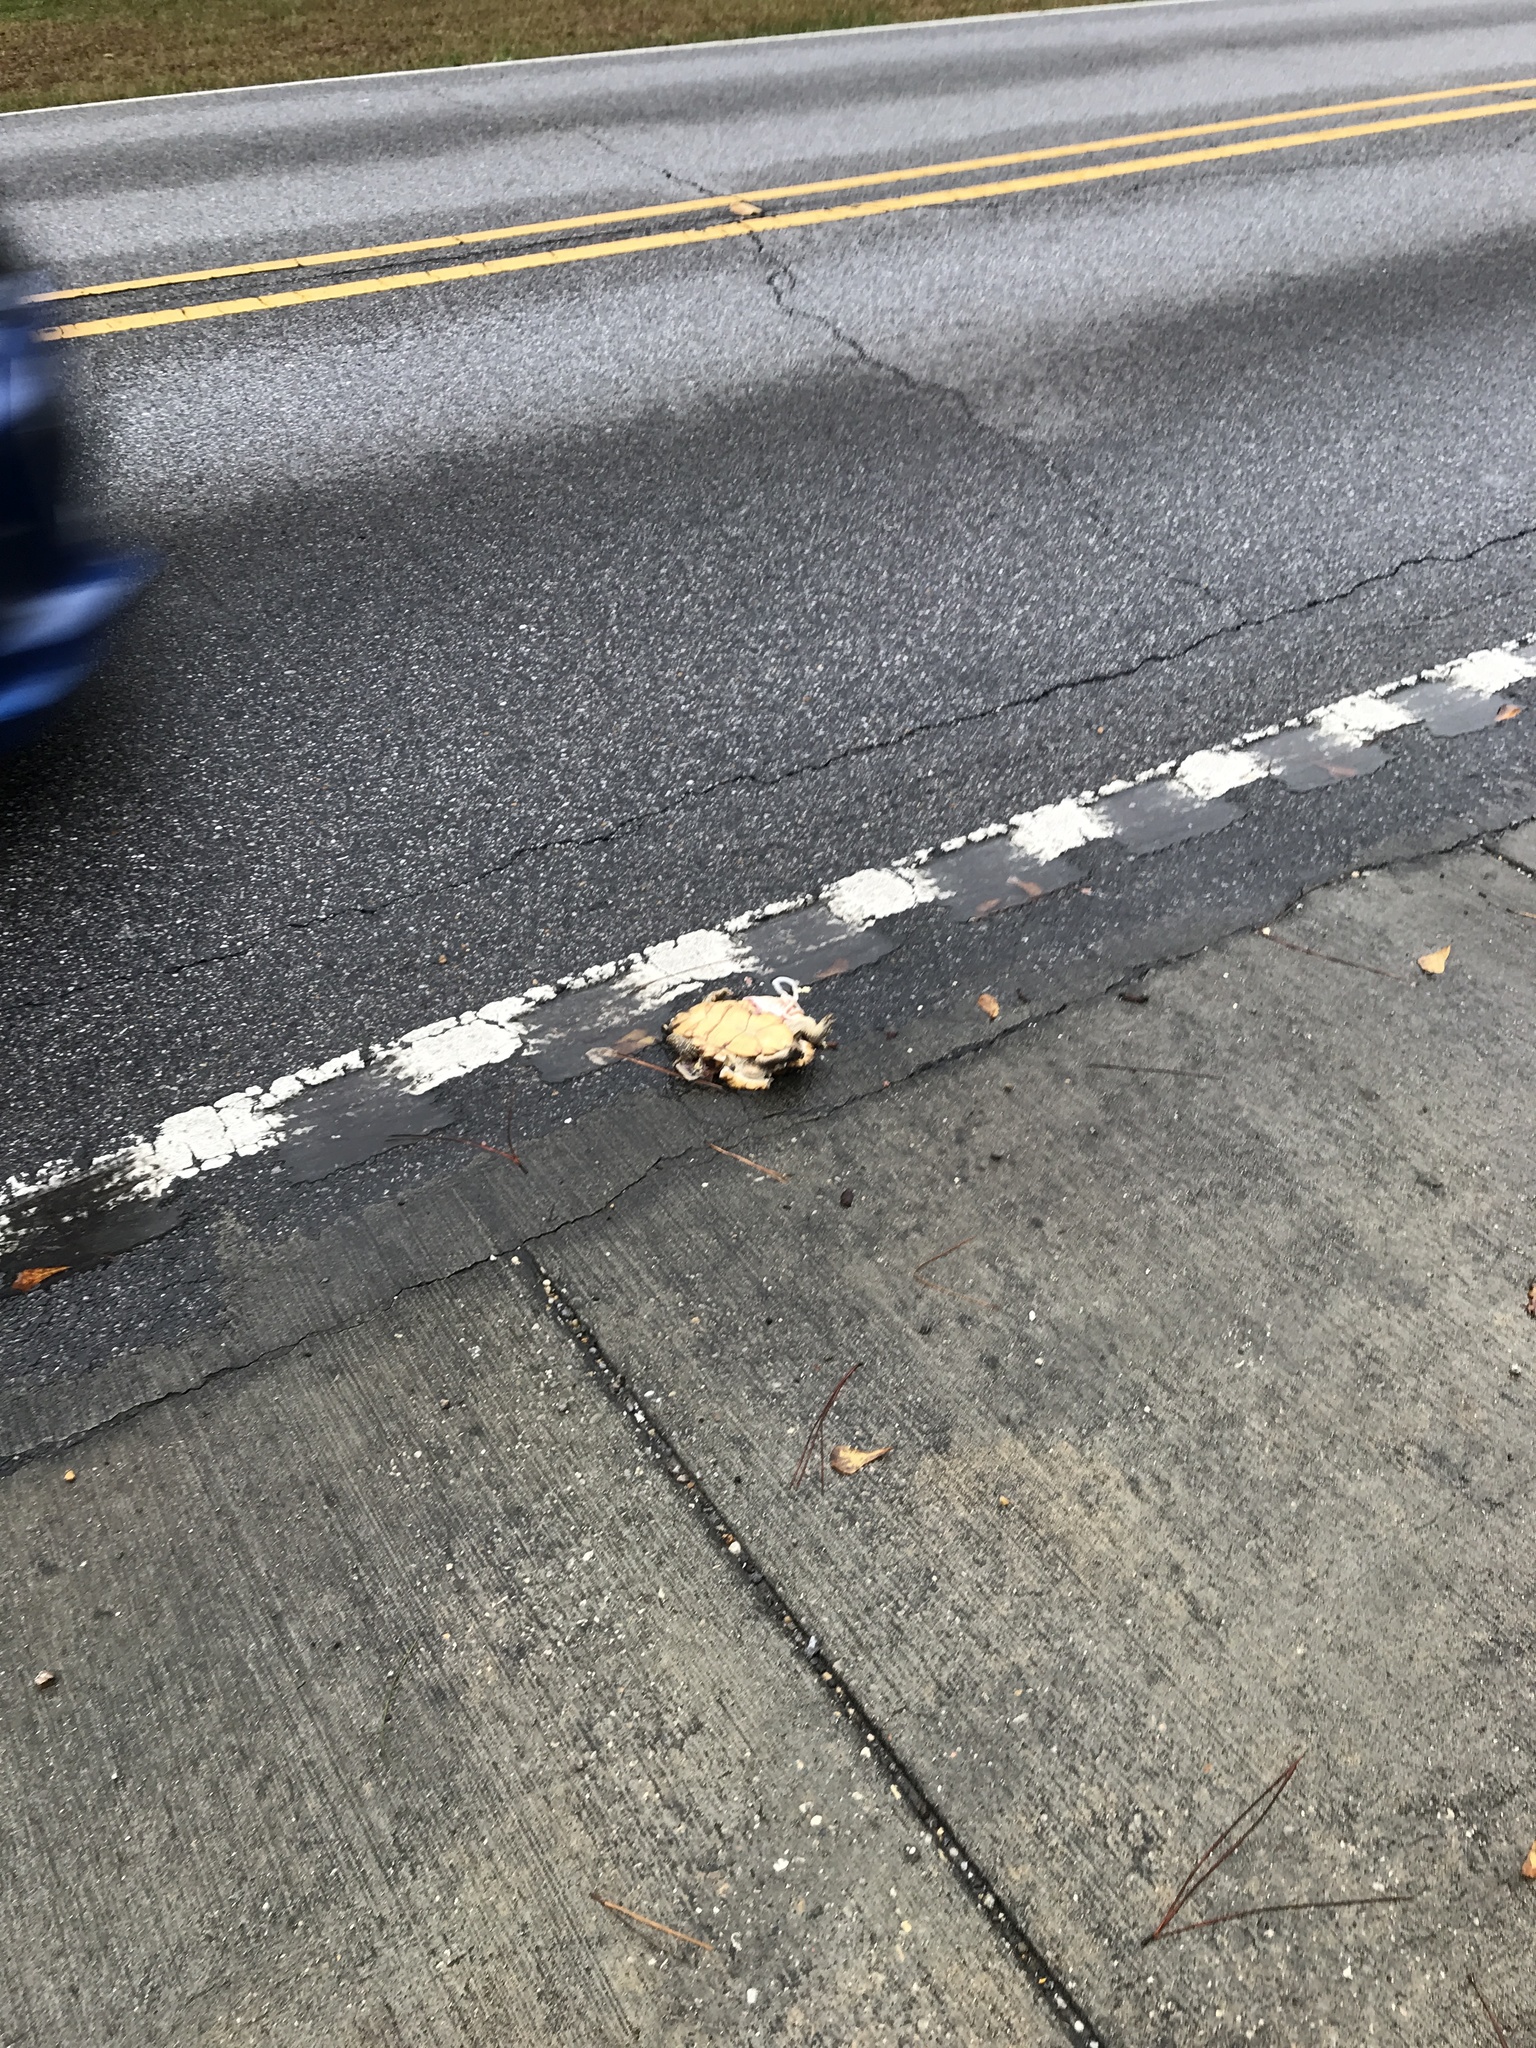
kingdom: Animalia
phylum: Chordata
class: Testudines
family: Emydidae
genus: Terrapene
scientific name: Terrapene carolina
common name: Common box turtle
